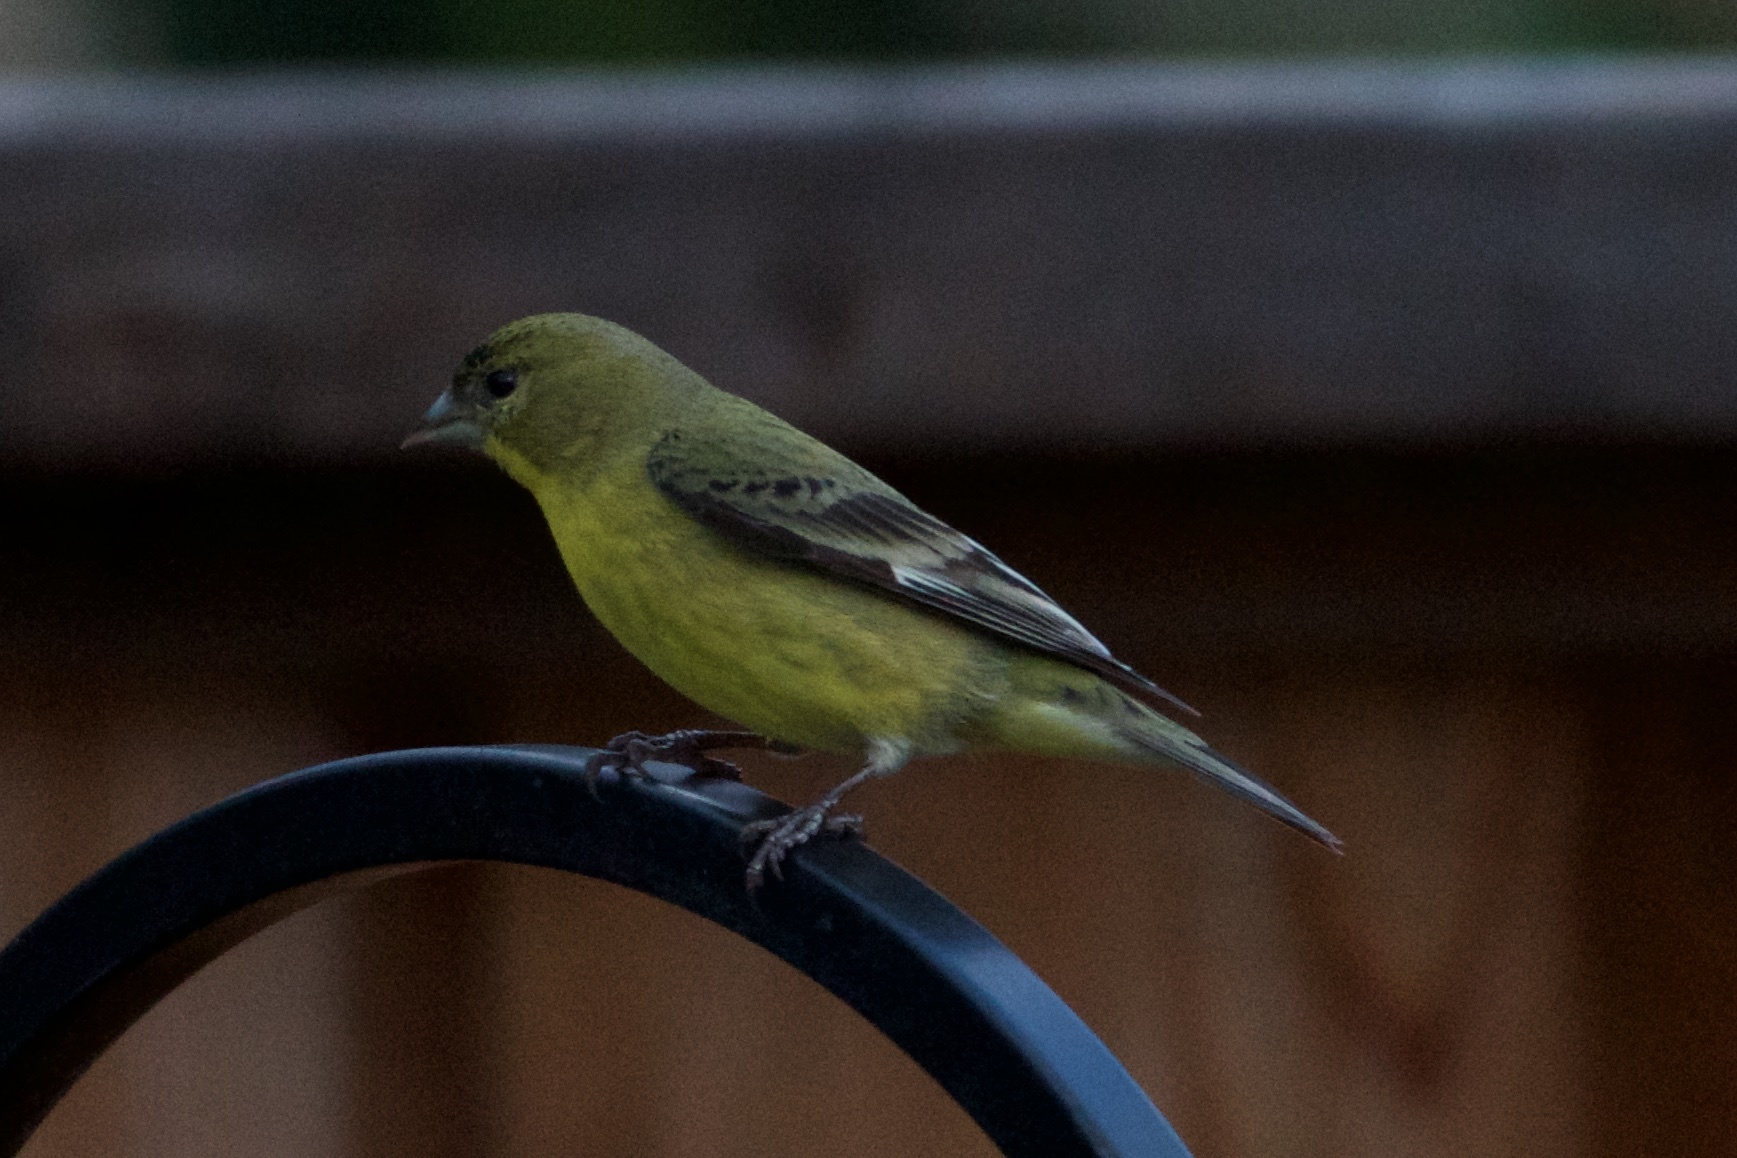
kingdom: Animalia
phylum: Chordata
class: Aves
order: Passeriformes
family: Fringillidae
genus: Spinus
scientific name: Spinus psaltria
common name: Lesser goldfinch
